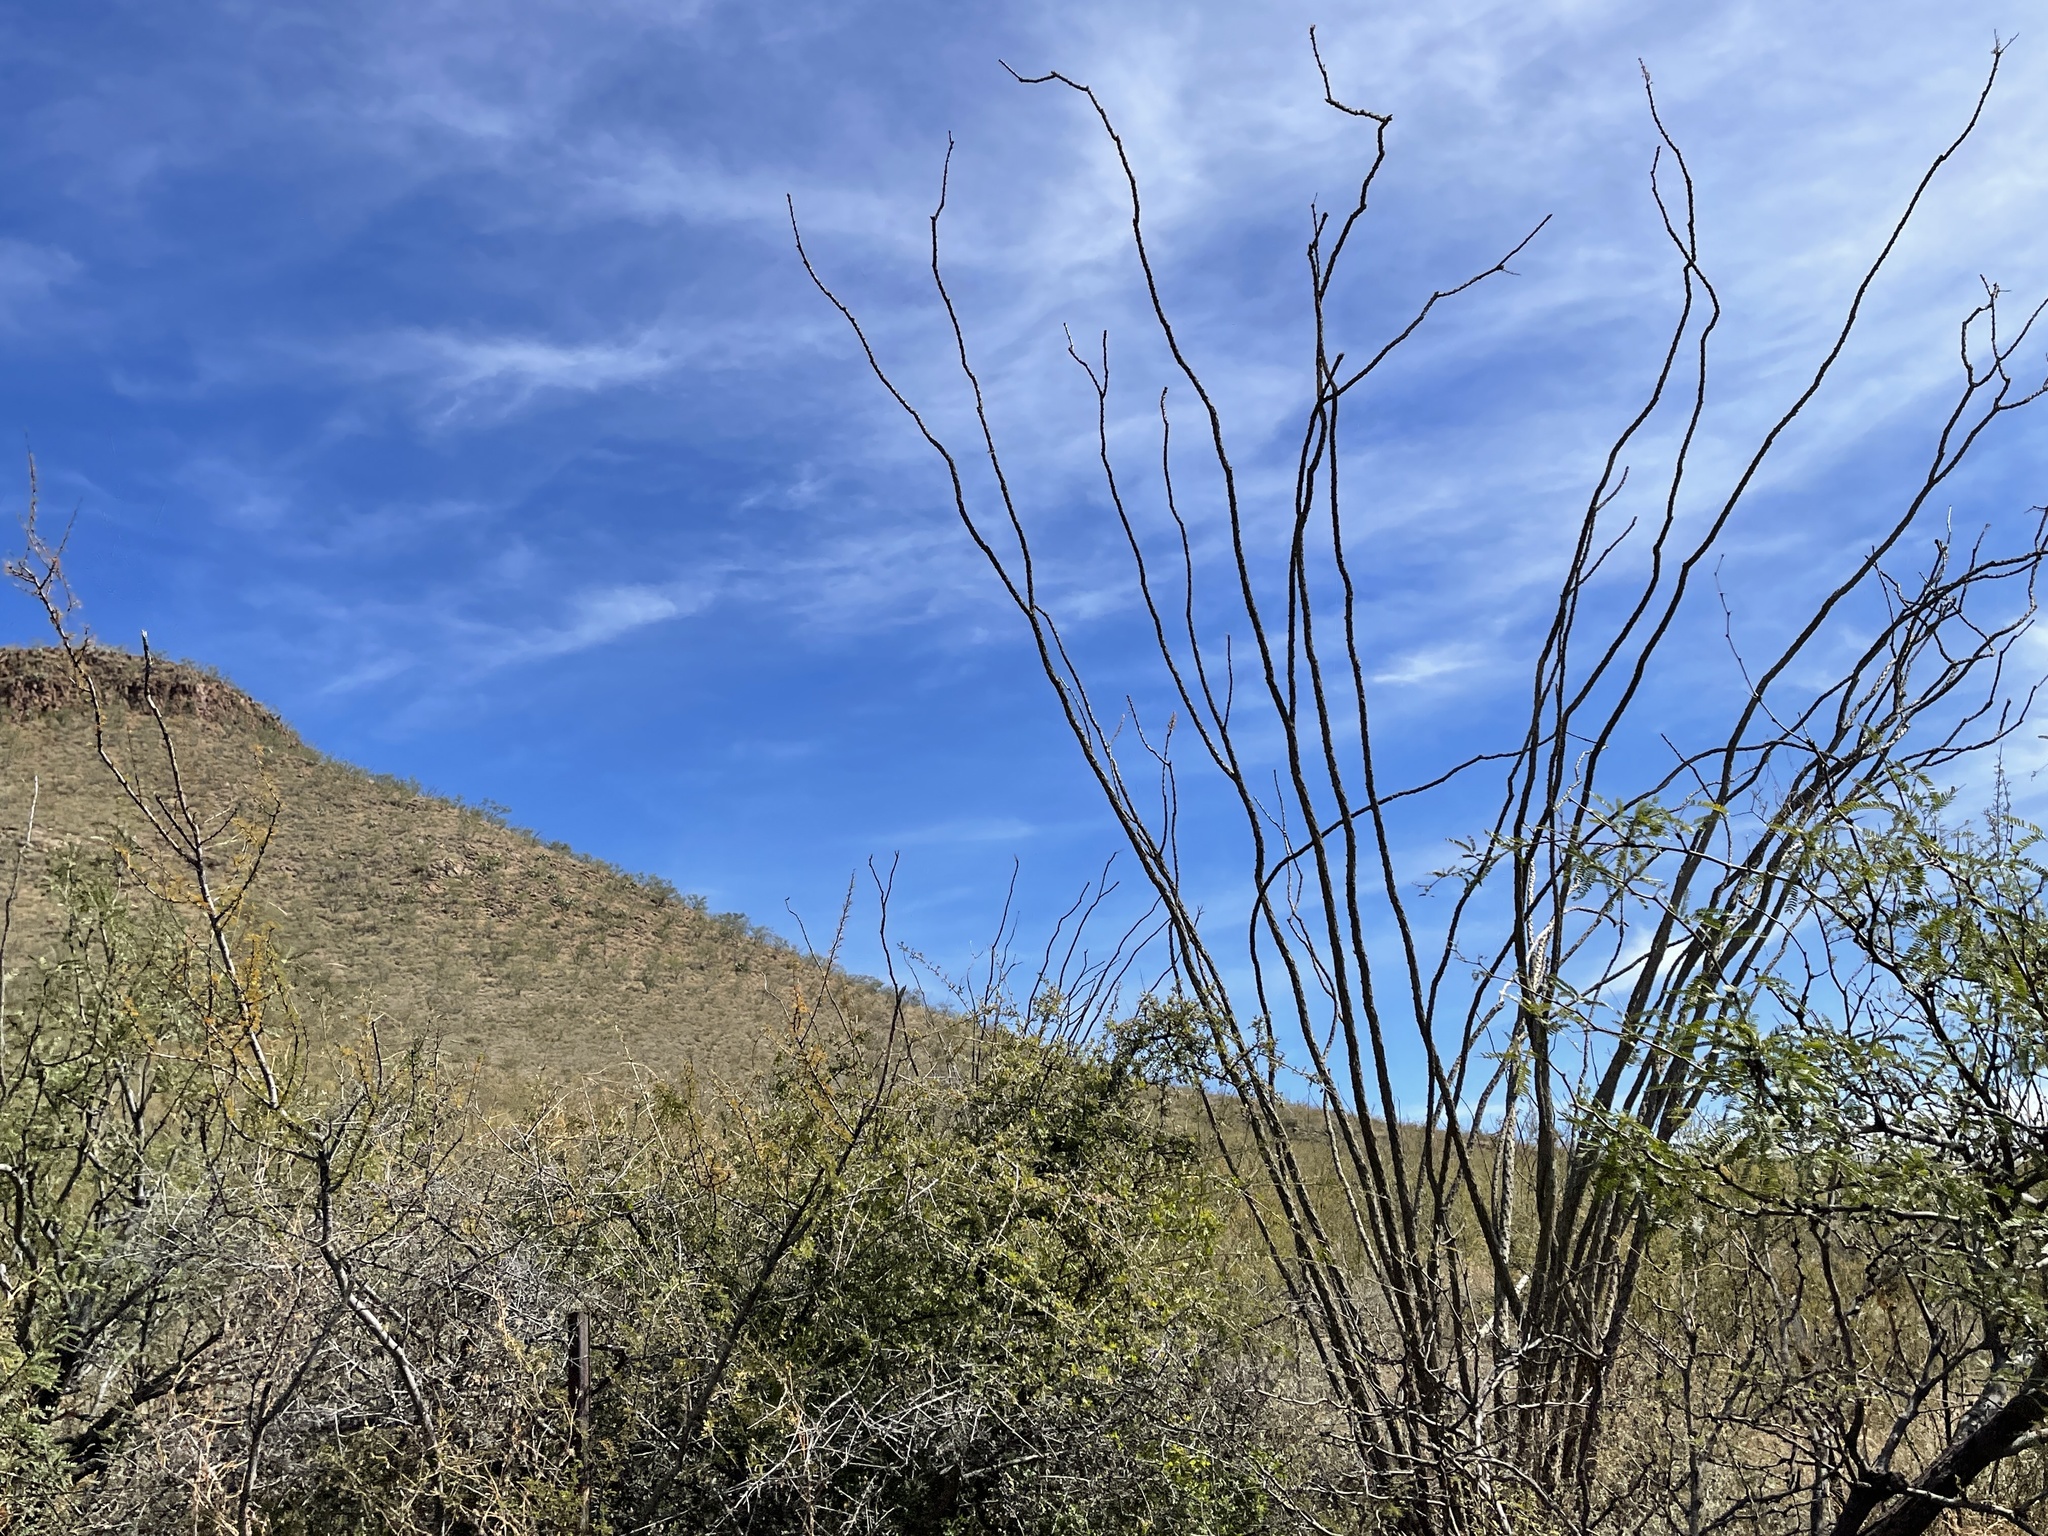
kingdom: Plantae
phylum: Tracheophyta
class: Magnoliopsida
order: Ericales
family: Fouquieriaceae
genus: Fouquieria
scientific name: Fouquieria splendens
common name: Vine-cactus
